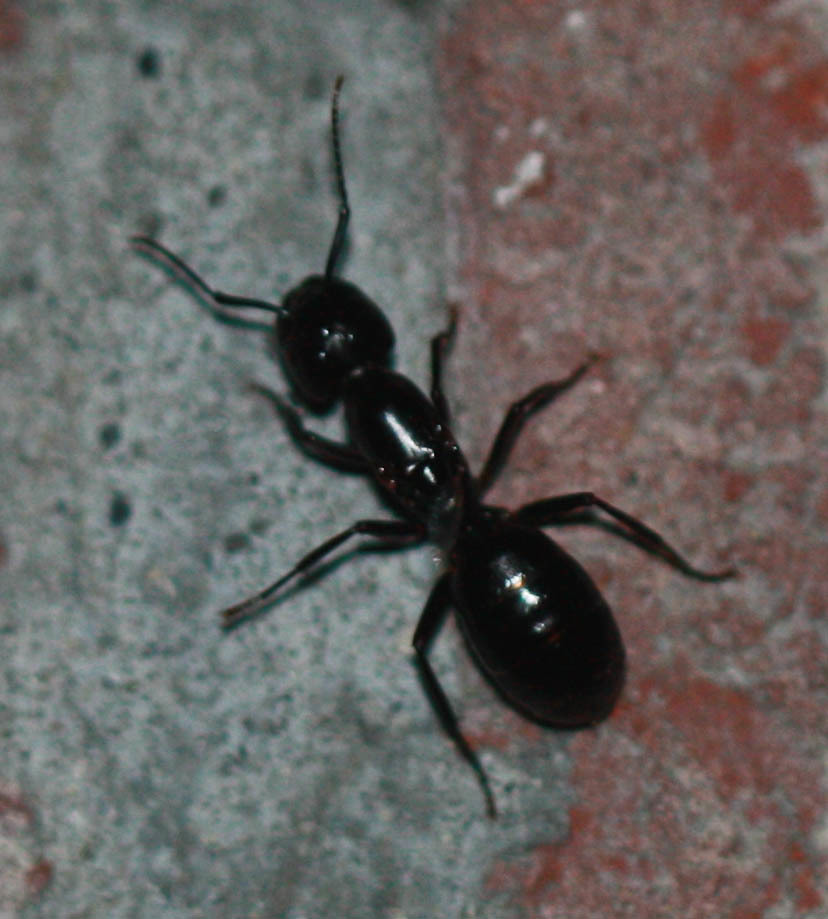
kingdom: Animalia
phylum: Arthropoda
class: Insecta
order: Hymenoptera
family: Formicidae
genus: Camponotus
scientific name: Camponotus laevigatus
